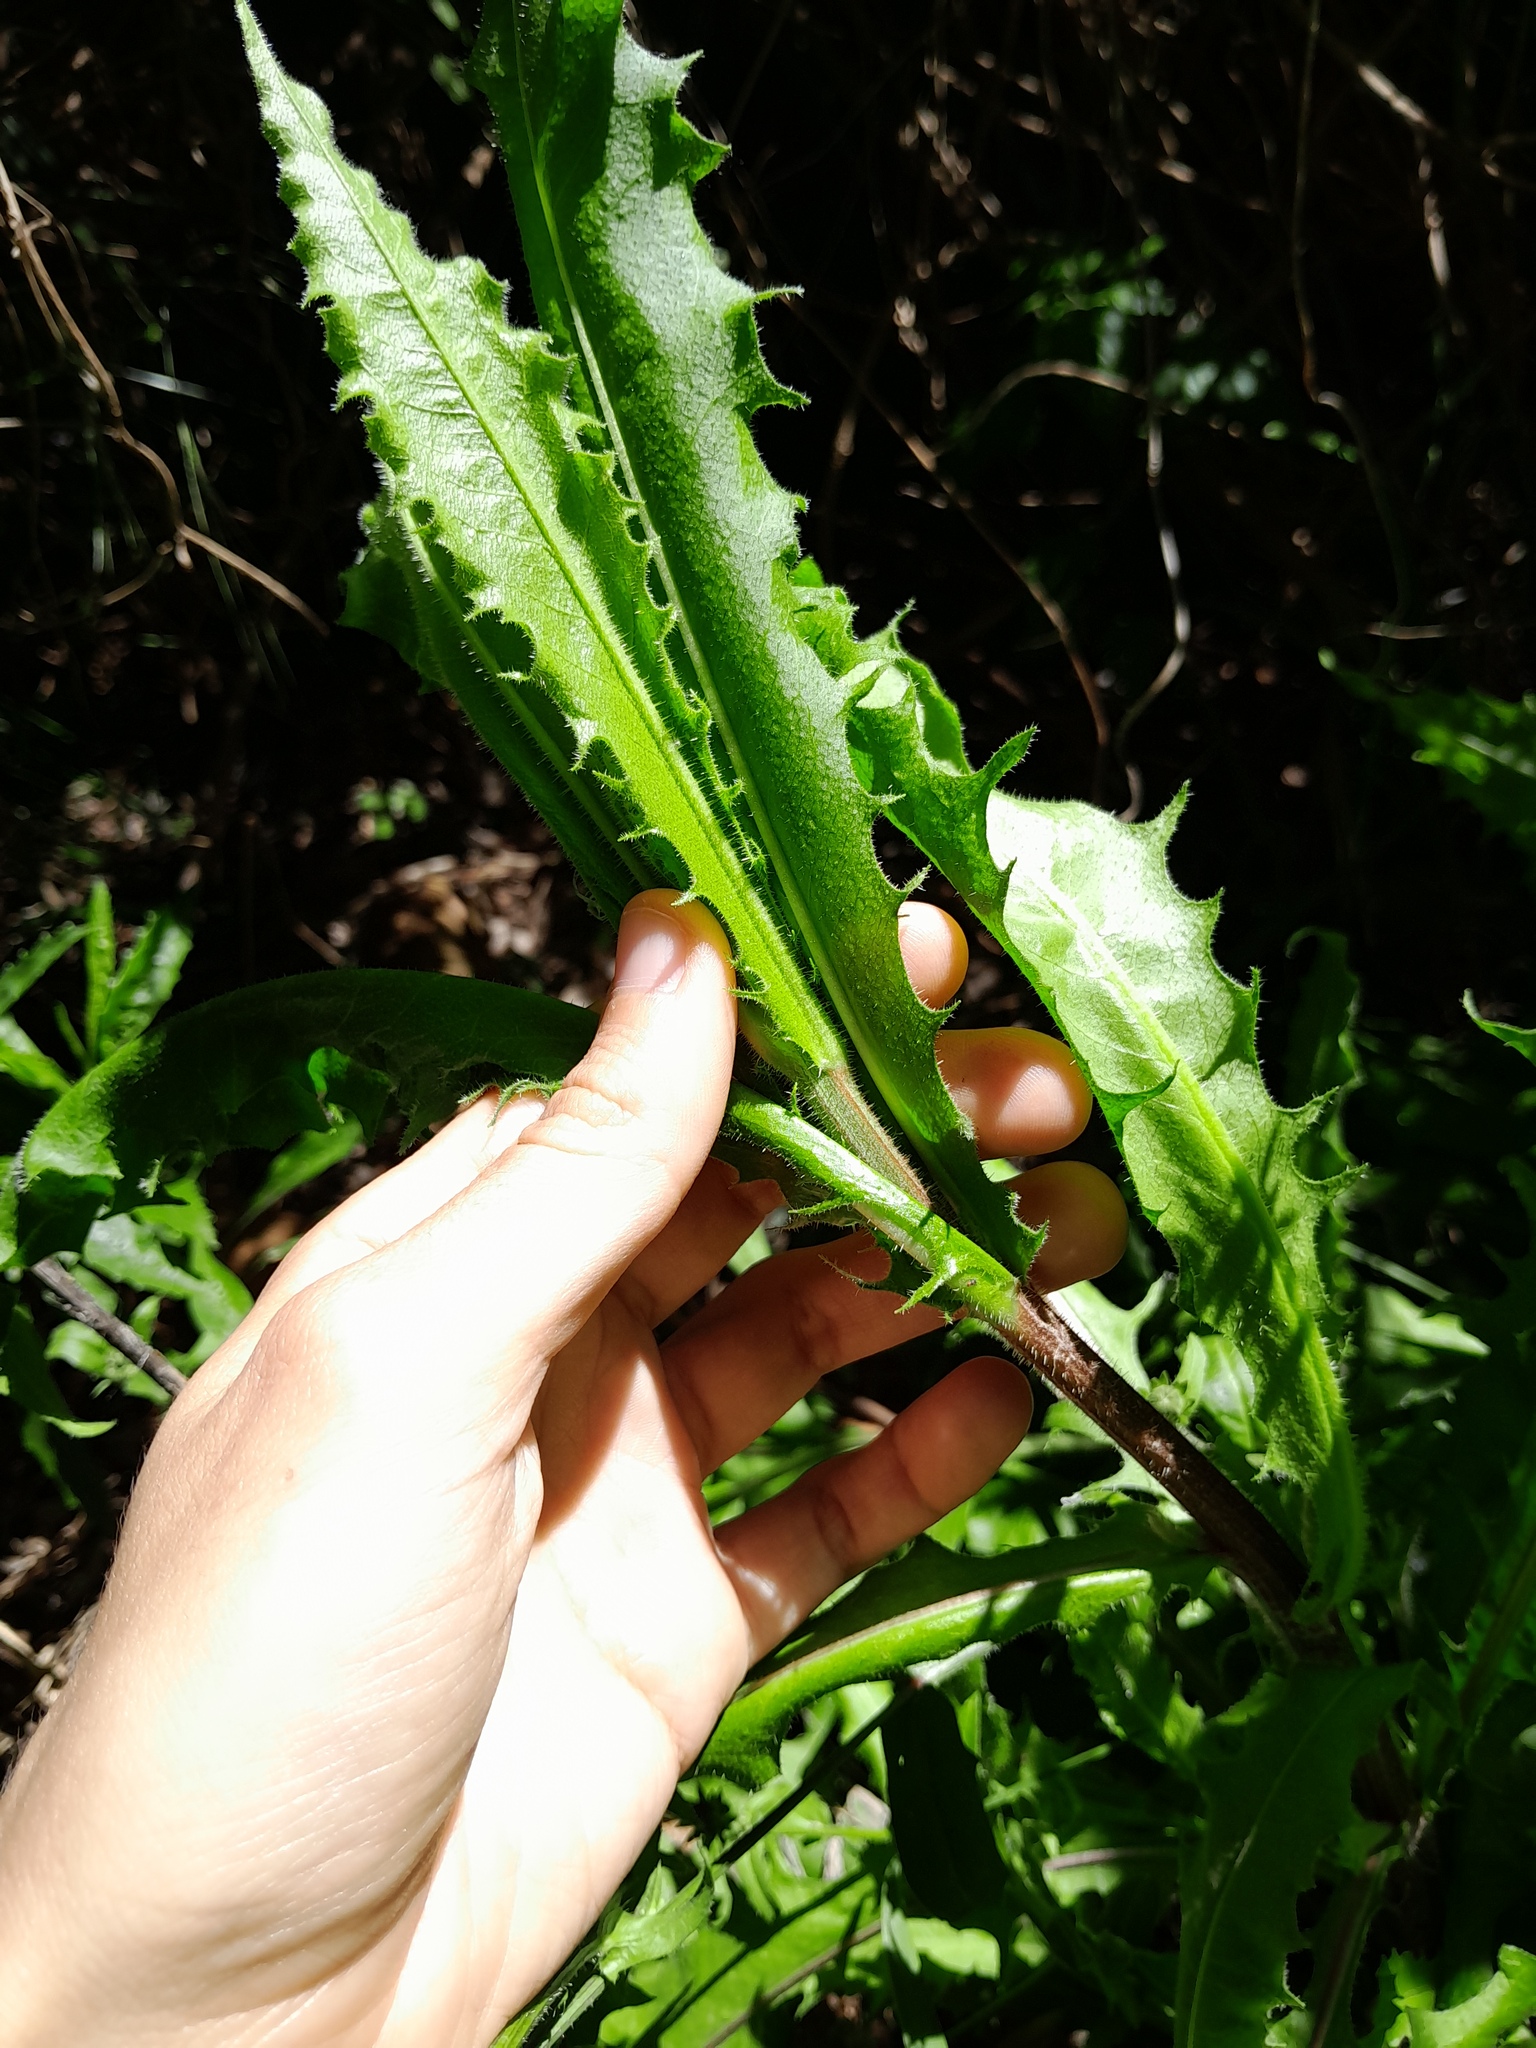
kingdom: Plantae
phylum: Tracheophyta
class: Magnoliopsida
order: Asterales
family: Asteraceae
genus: Picris
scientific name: Picris hieracioides
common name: Hawkweed oxtongue
